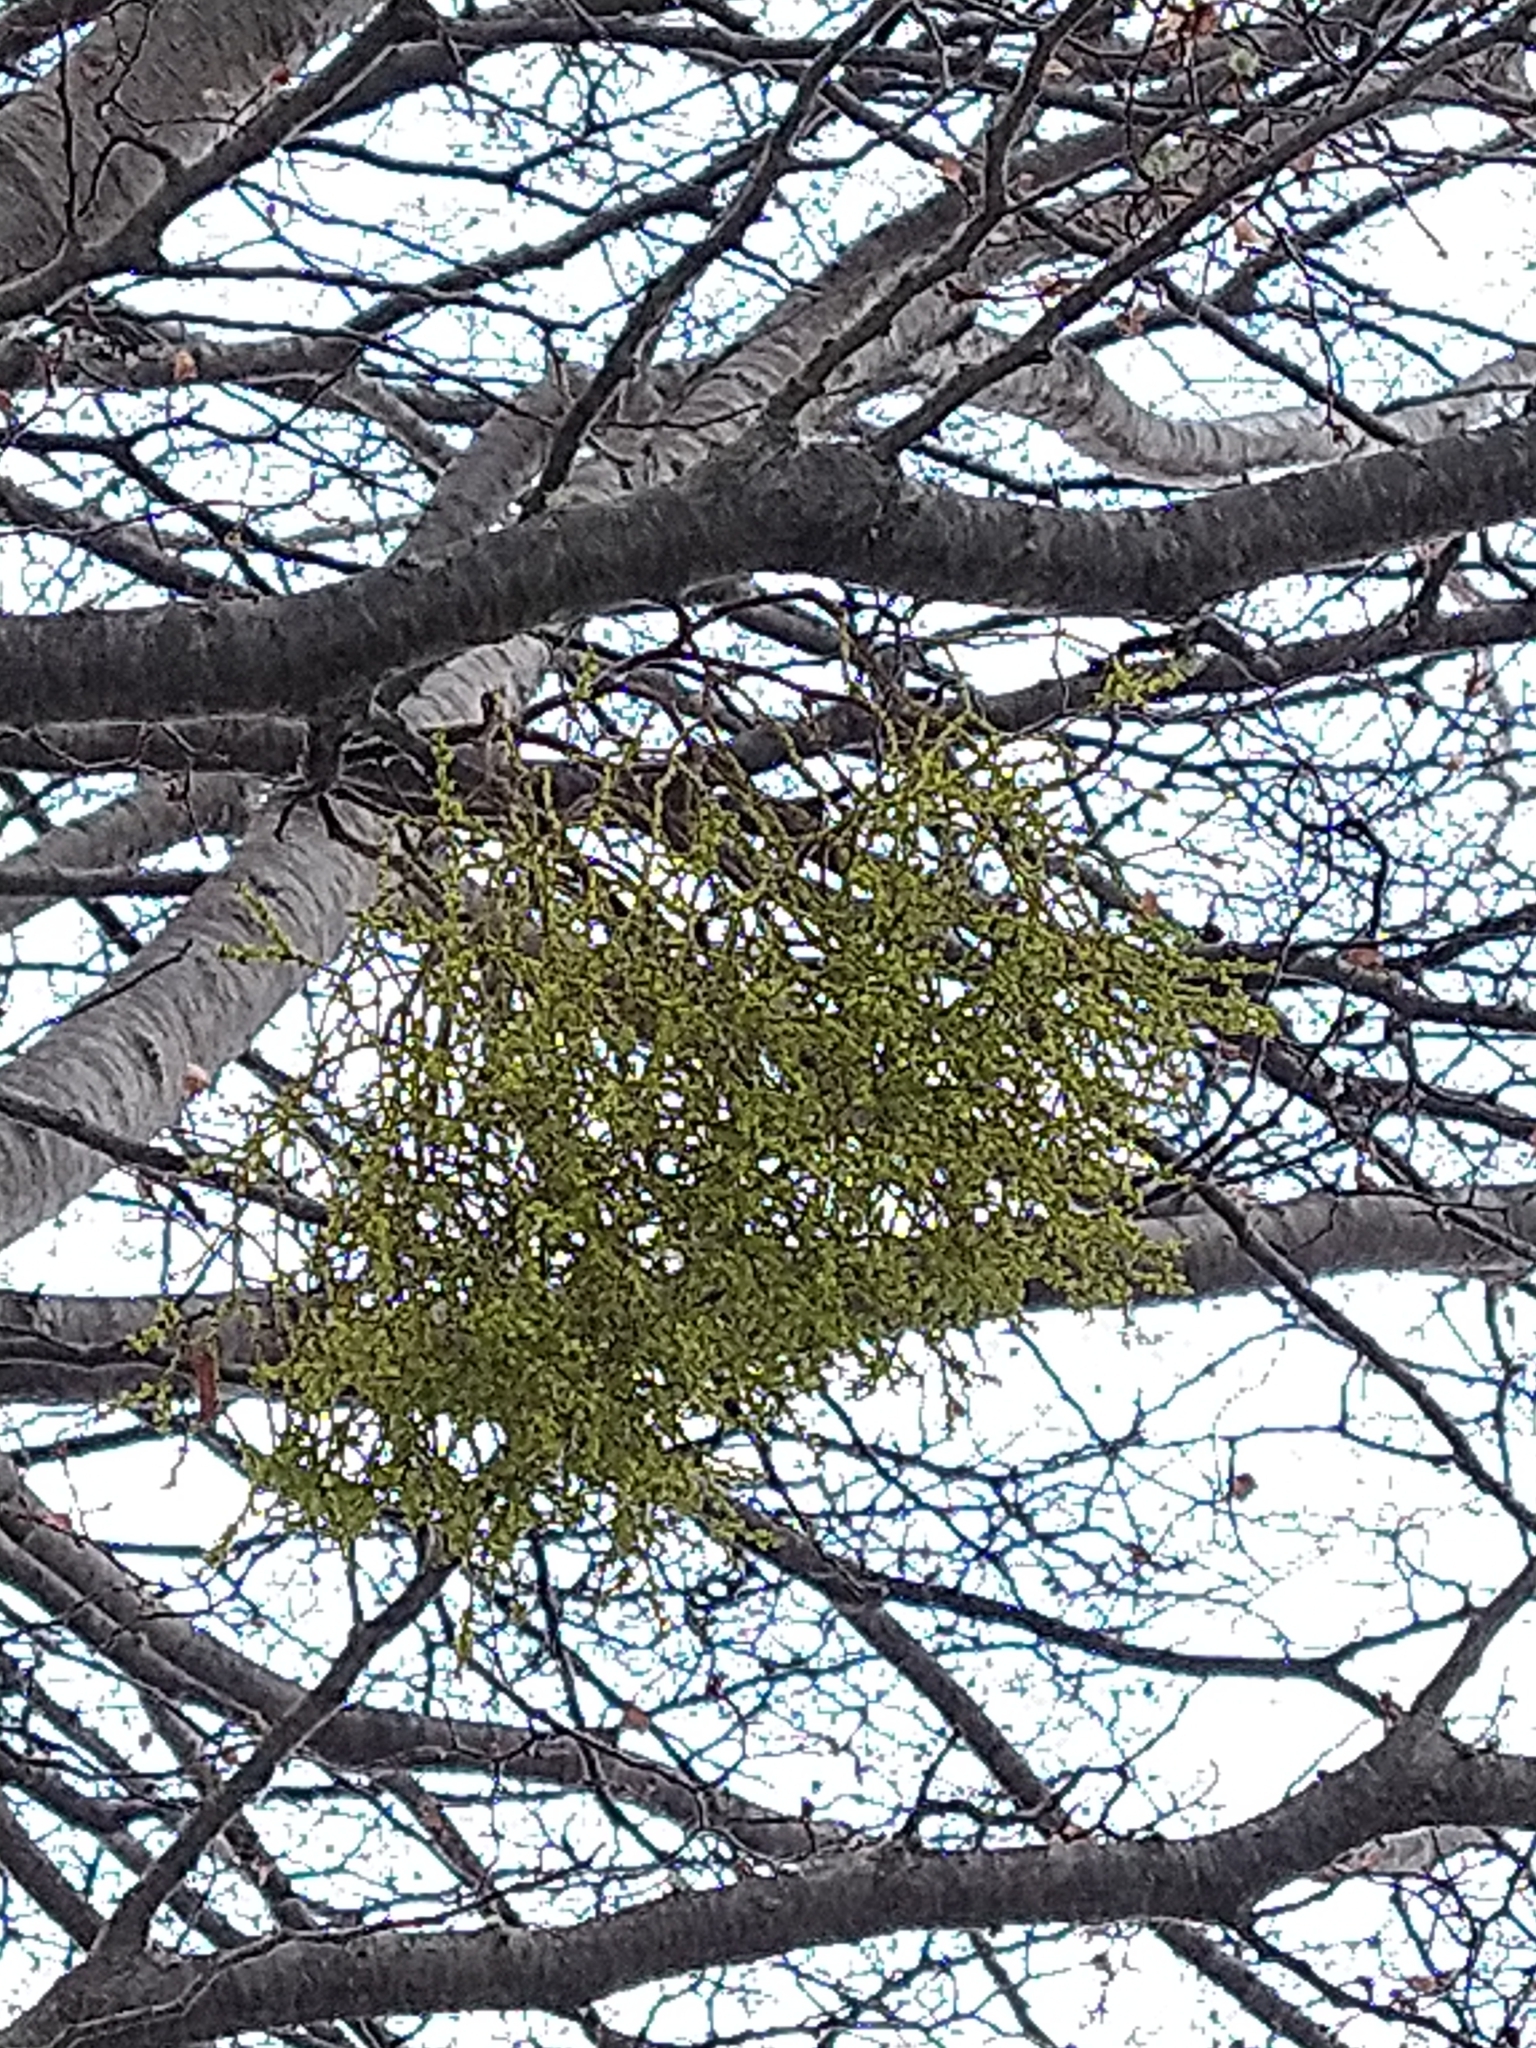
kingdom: Plantae
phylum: Tracheophyta
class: Magnoliopsida
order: Santalales
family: Misodendraceae
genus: Misodendrum
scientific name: Misodendrum punctulatum
